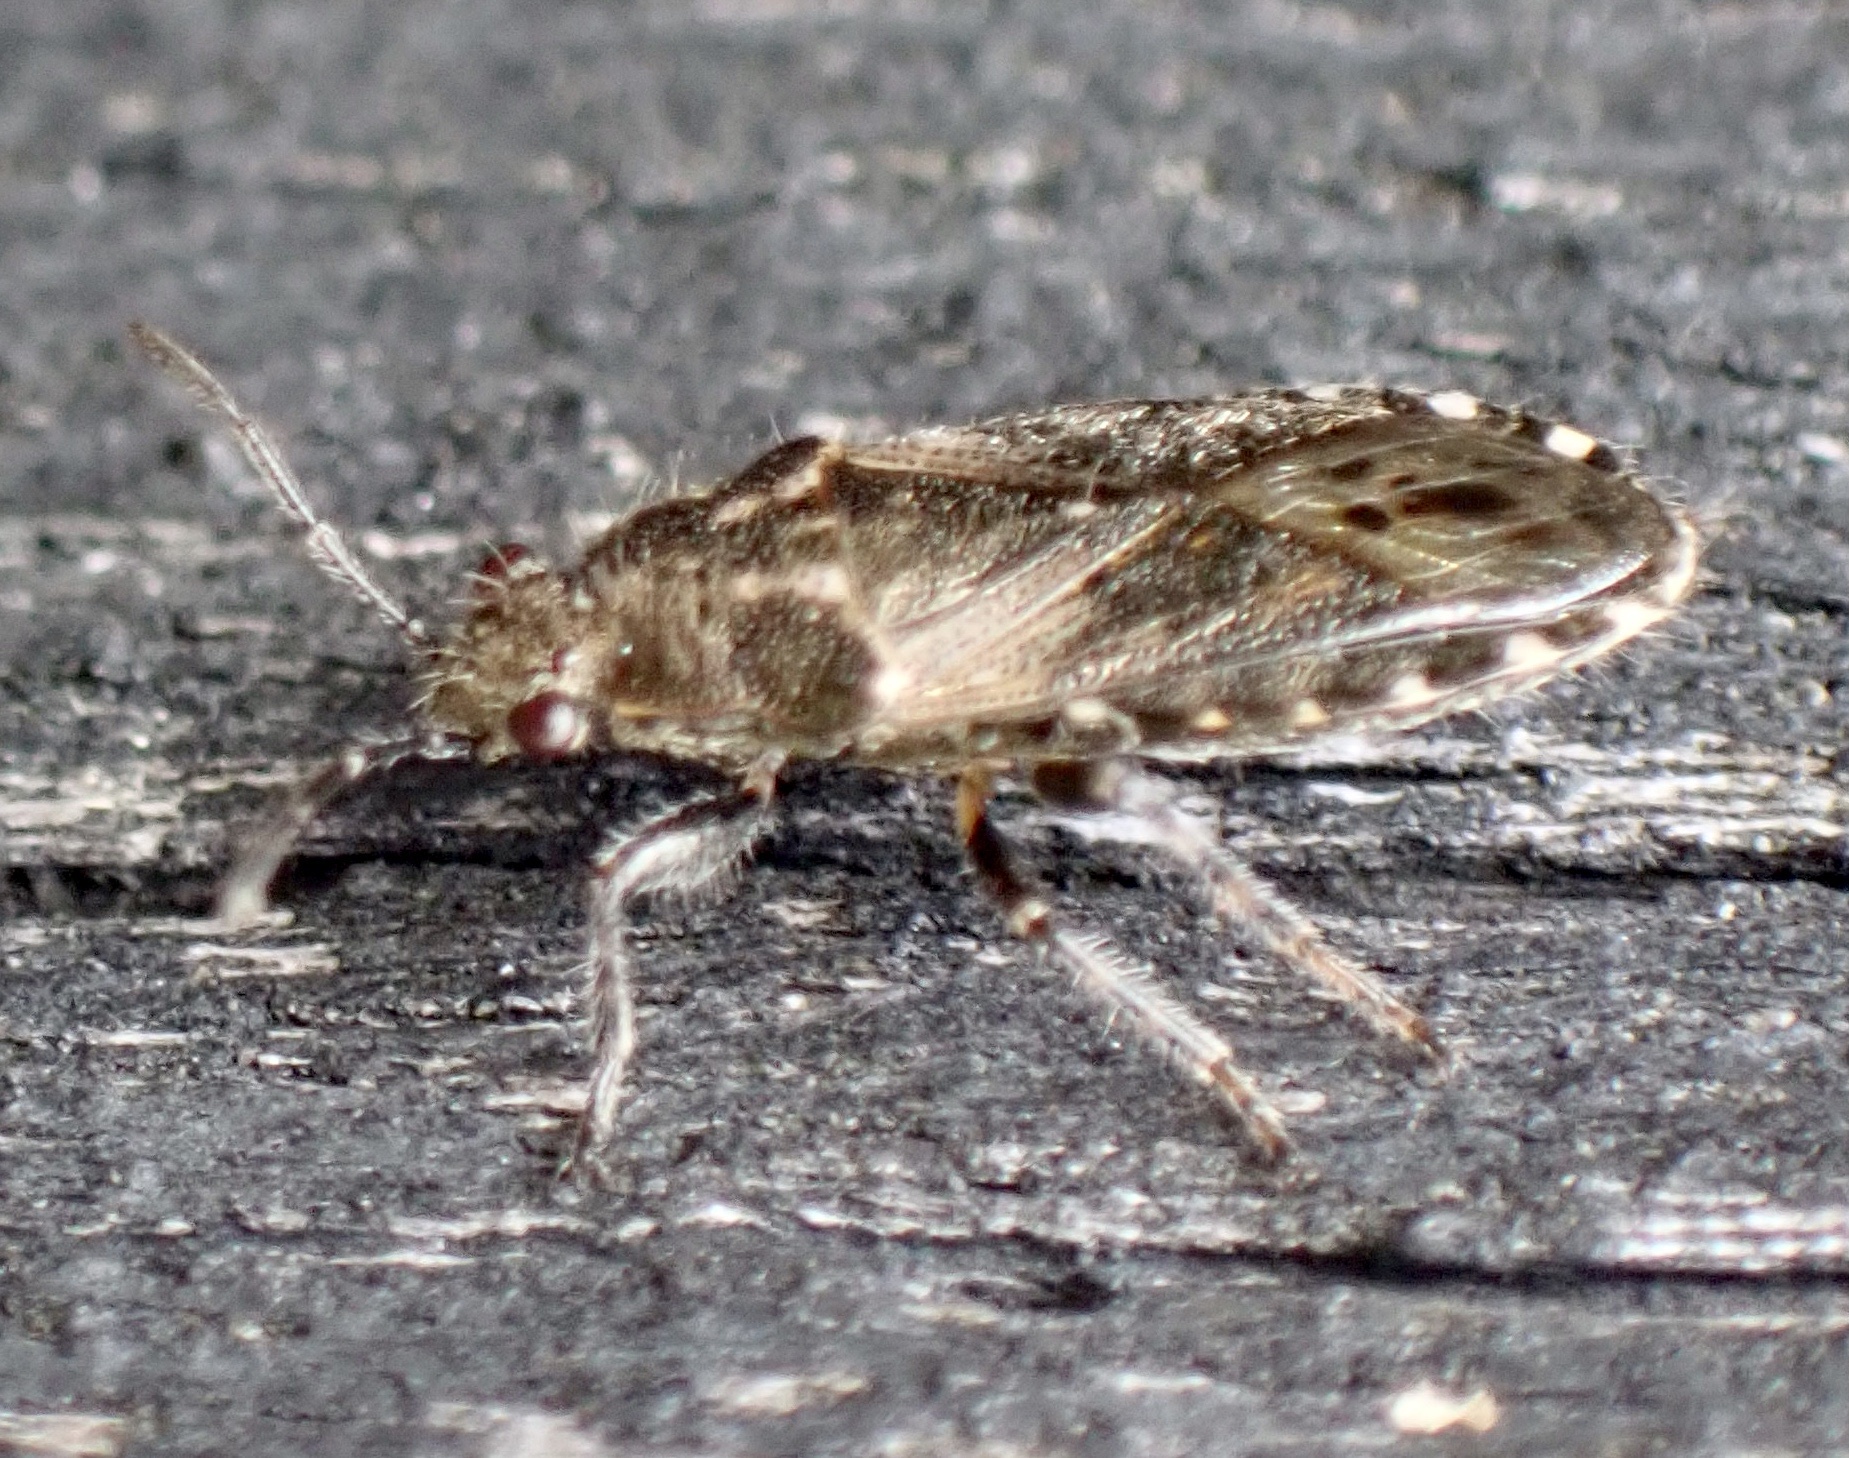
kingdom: Animalia
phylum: Arthropoda
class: Insecta
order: Hemiptera
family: Heterogastridae
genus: Heterogaster
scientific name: Heterogaster urticae
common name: Seed bug
